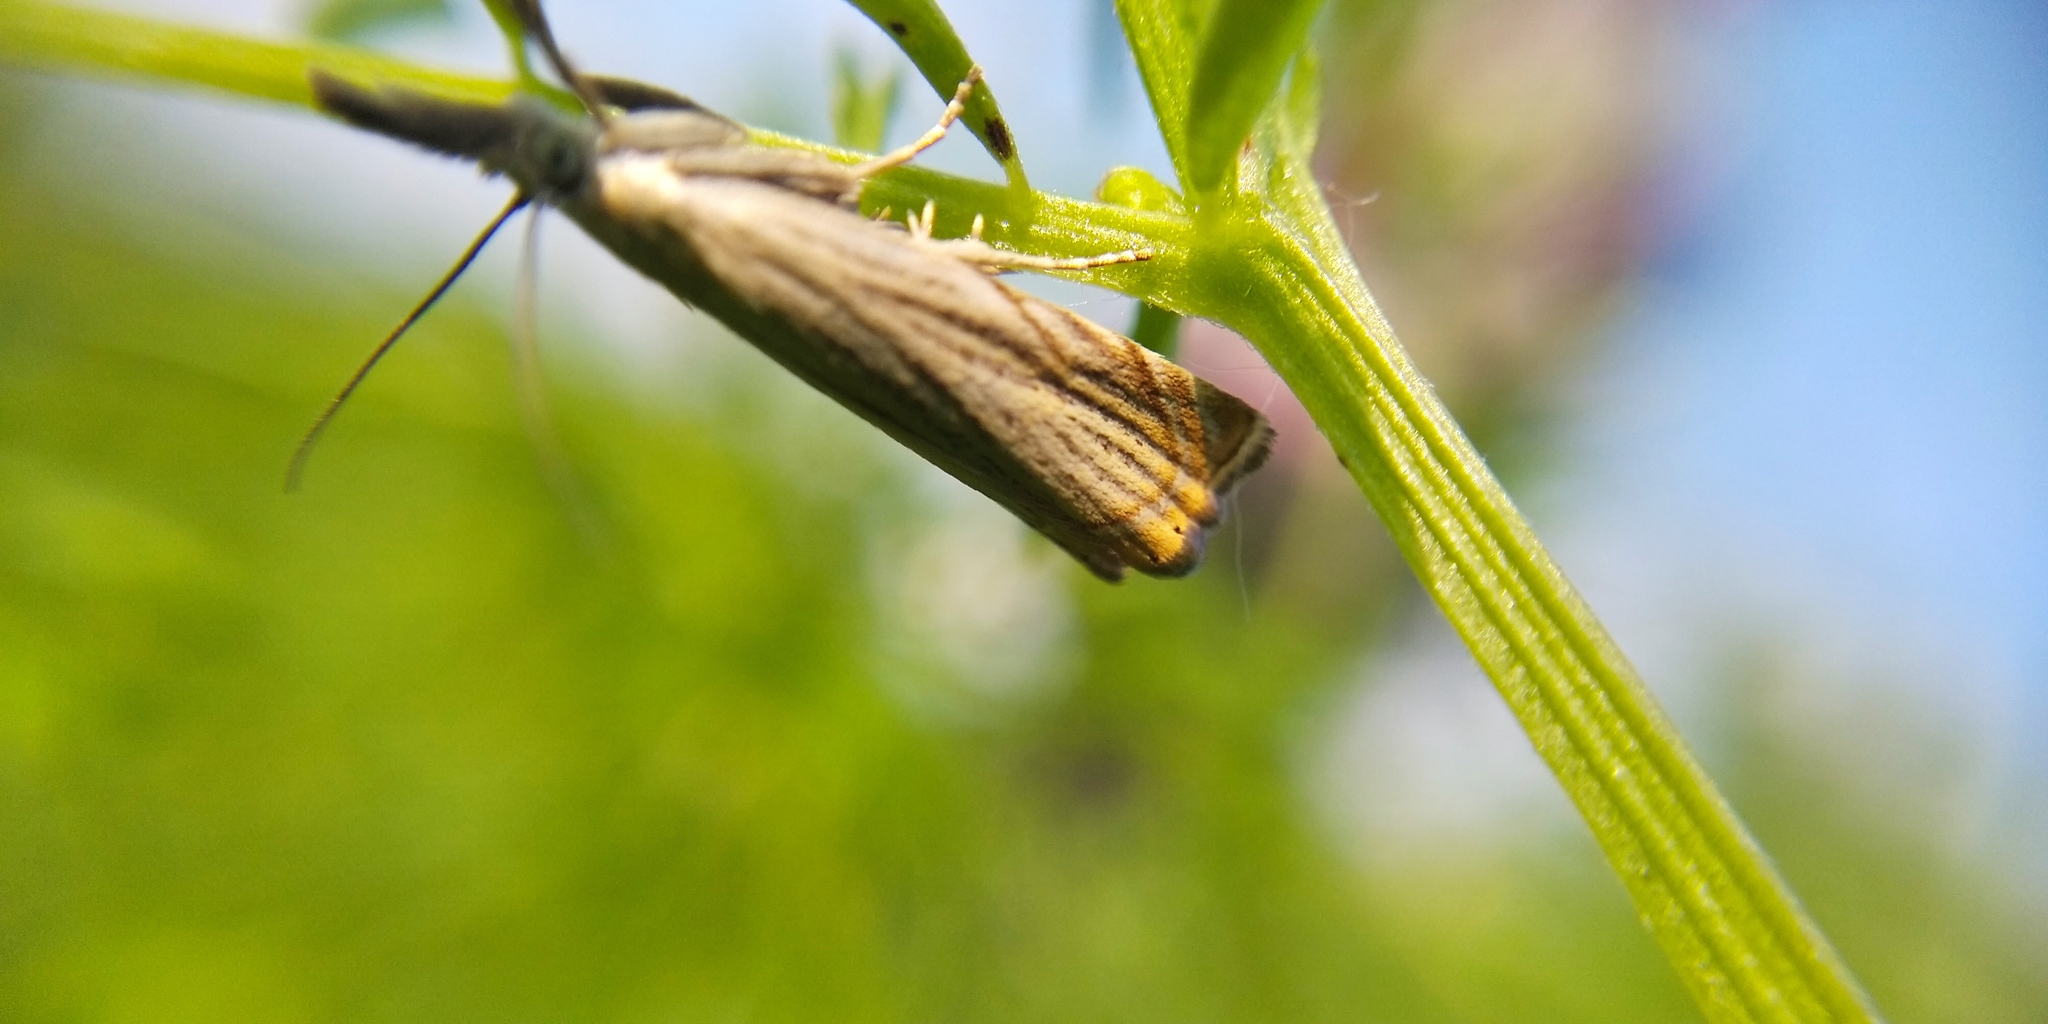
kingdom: Animalia
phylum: Arthropoda
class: Insecta
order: Lepidoptera
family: Crambidae
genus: Chrysoteuchia
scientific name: Chrysoteuchia culmella
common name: Garden grass-veneer
